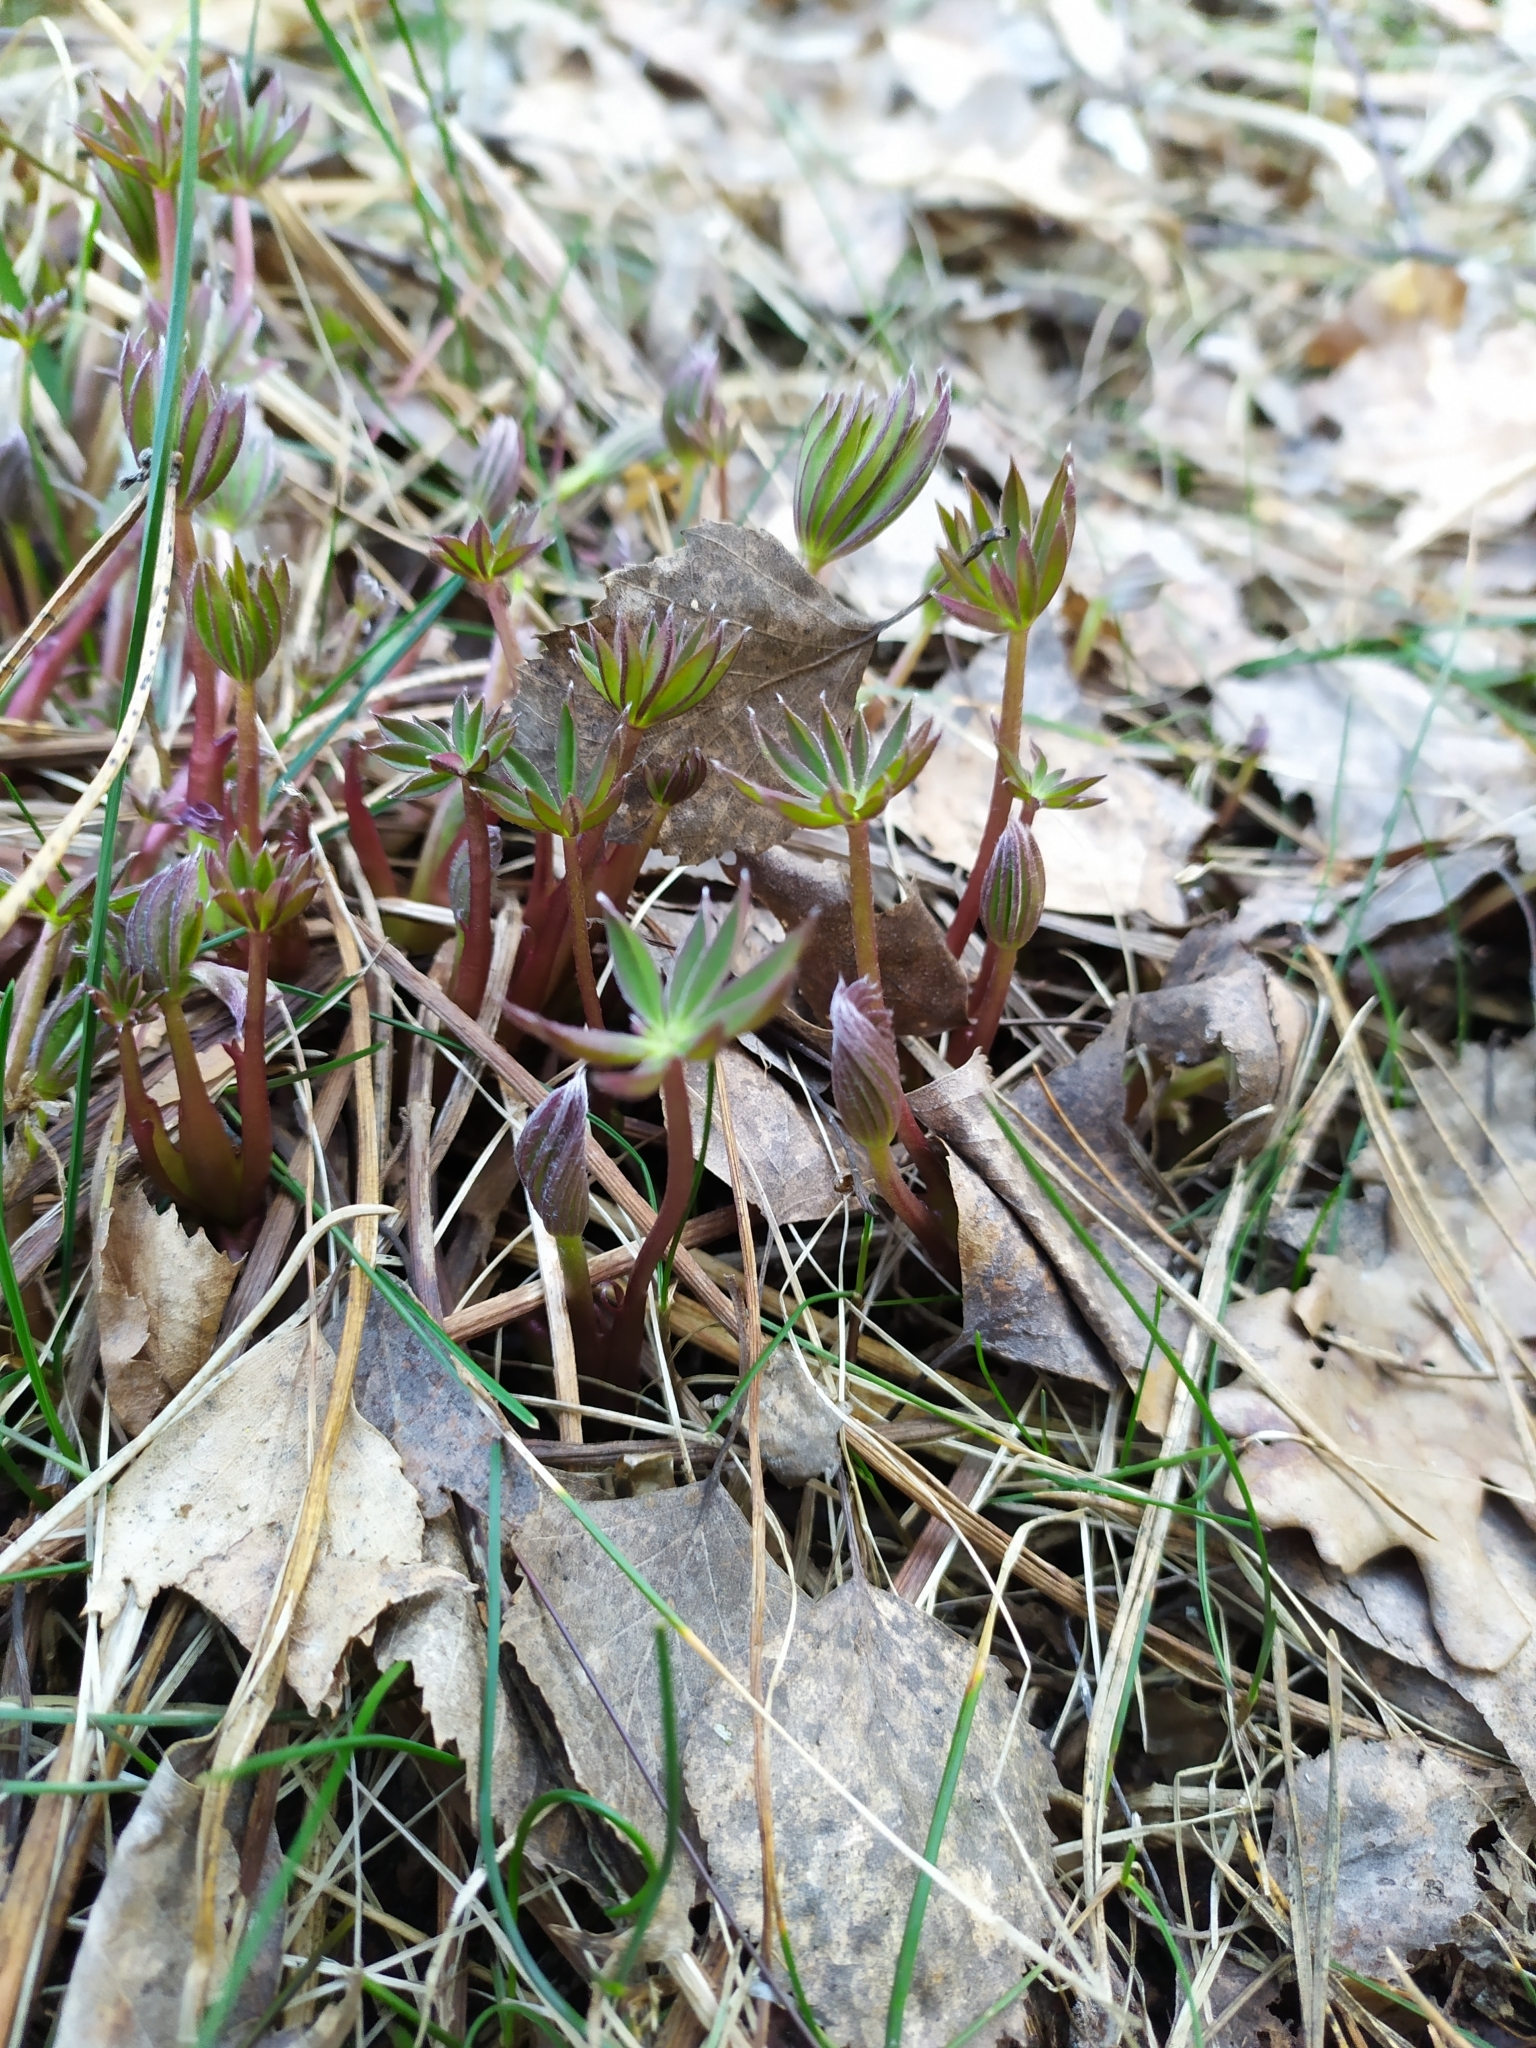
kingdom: Plantae
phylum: Tracheophyta
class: Magnoliopsida
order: Fabales
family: Fabaceae
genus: Lupinus
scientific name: Lupinus polyphyllus
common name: Garden lupin
